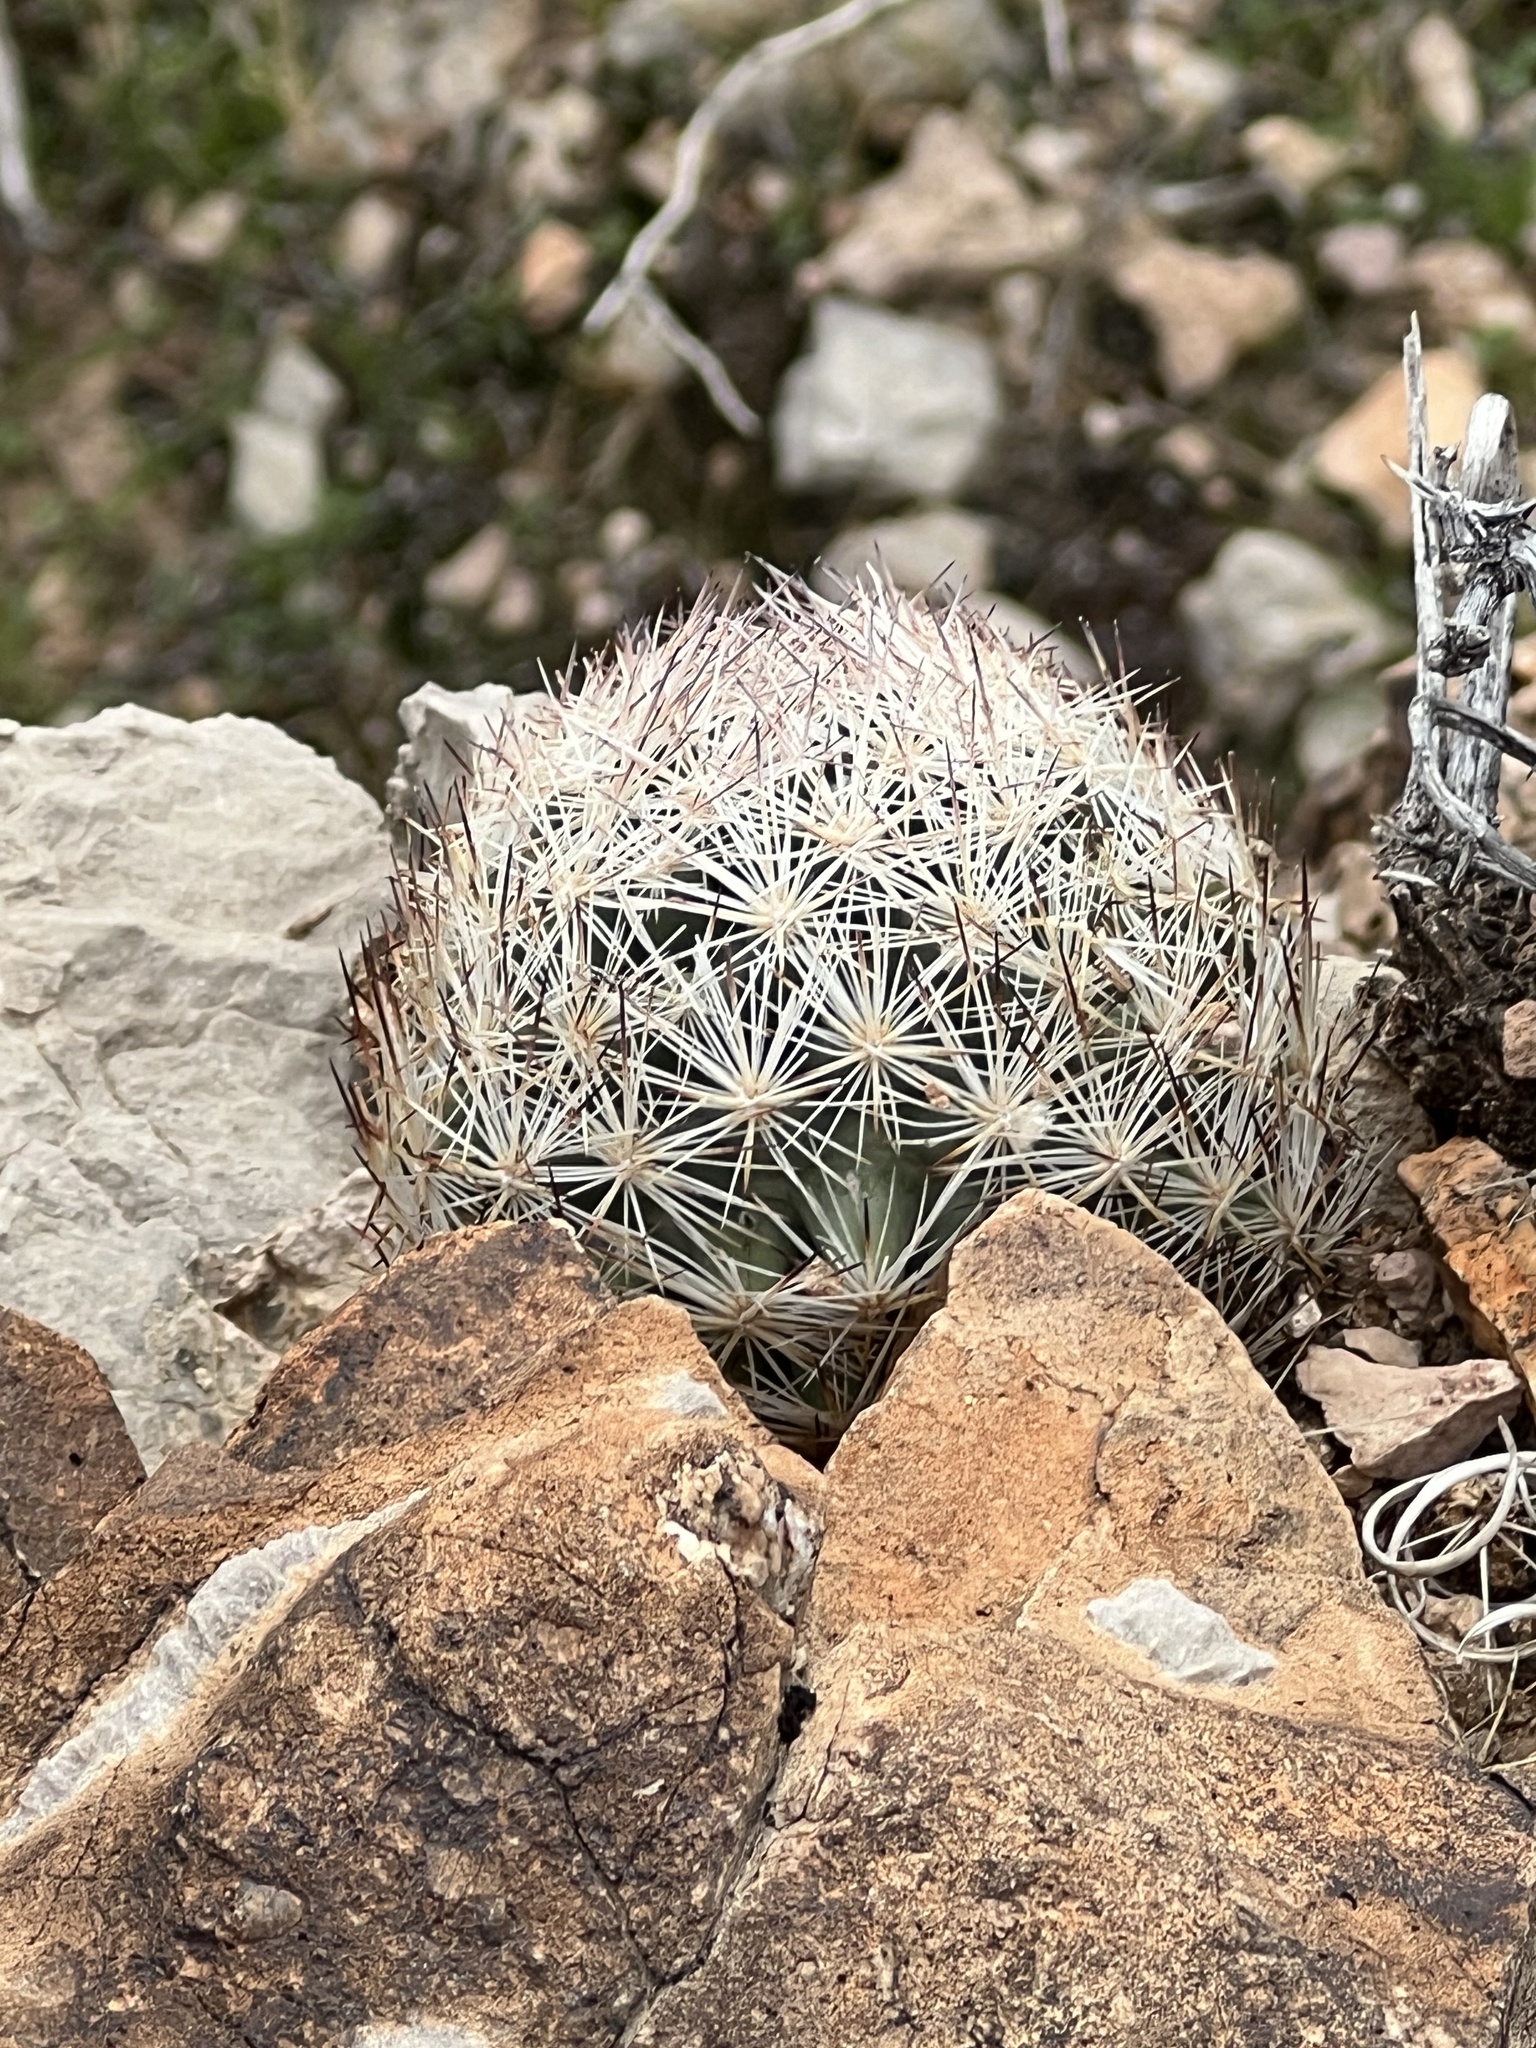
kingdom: Plantae
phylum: Tracheophyta
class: Magnoliopsida
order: Caryophyllales
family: Cactaceae
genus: Pelecyphora
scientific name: Pelecyphora dasyacantha
